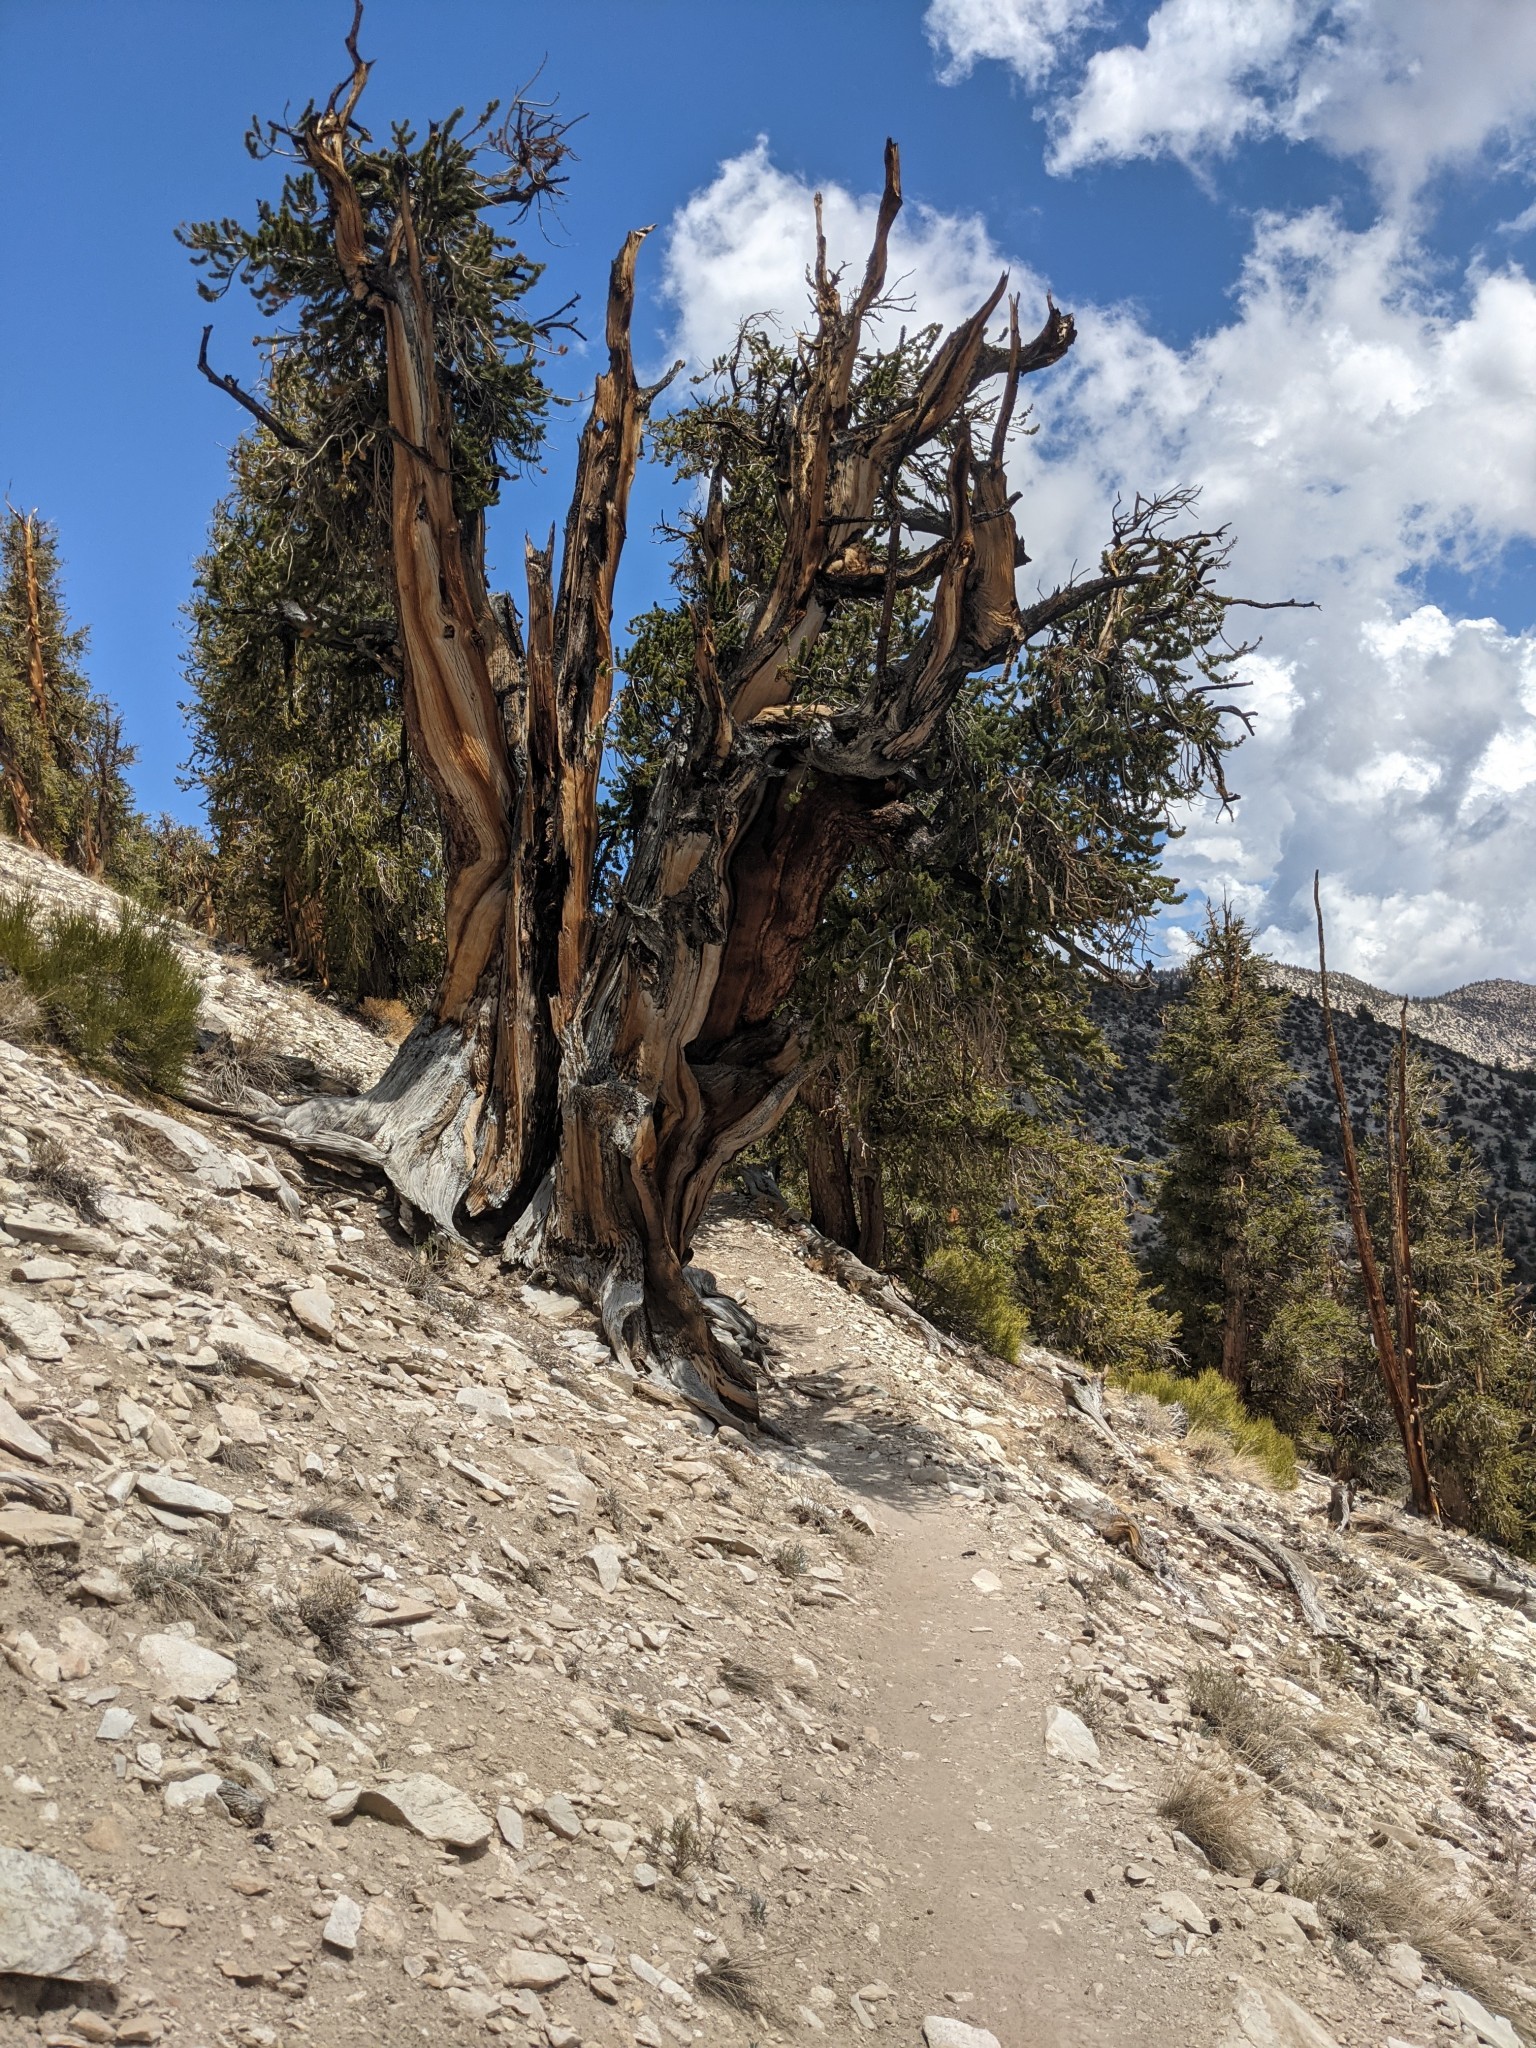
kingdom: Plantae
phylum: Tracheophyta
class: Pinopsida
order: Pinales
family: Pinaceae
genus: Pinus
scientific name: Pinus longaeva
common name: Intermountain bristlecone pine
